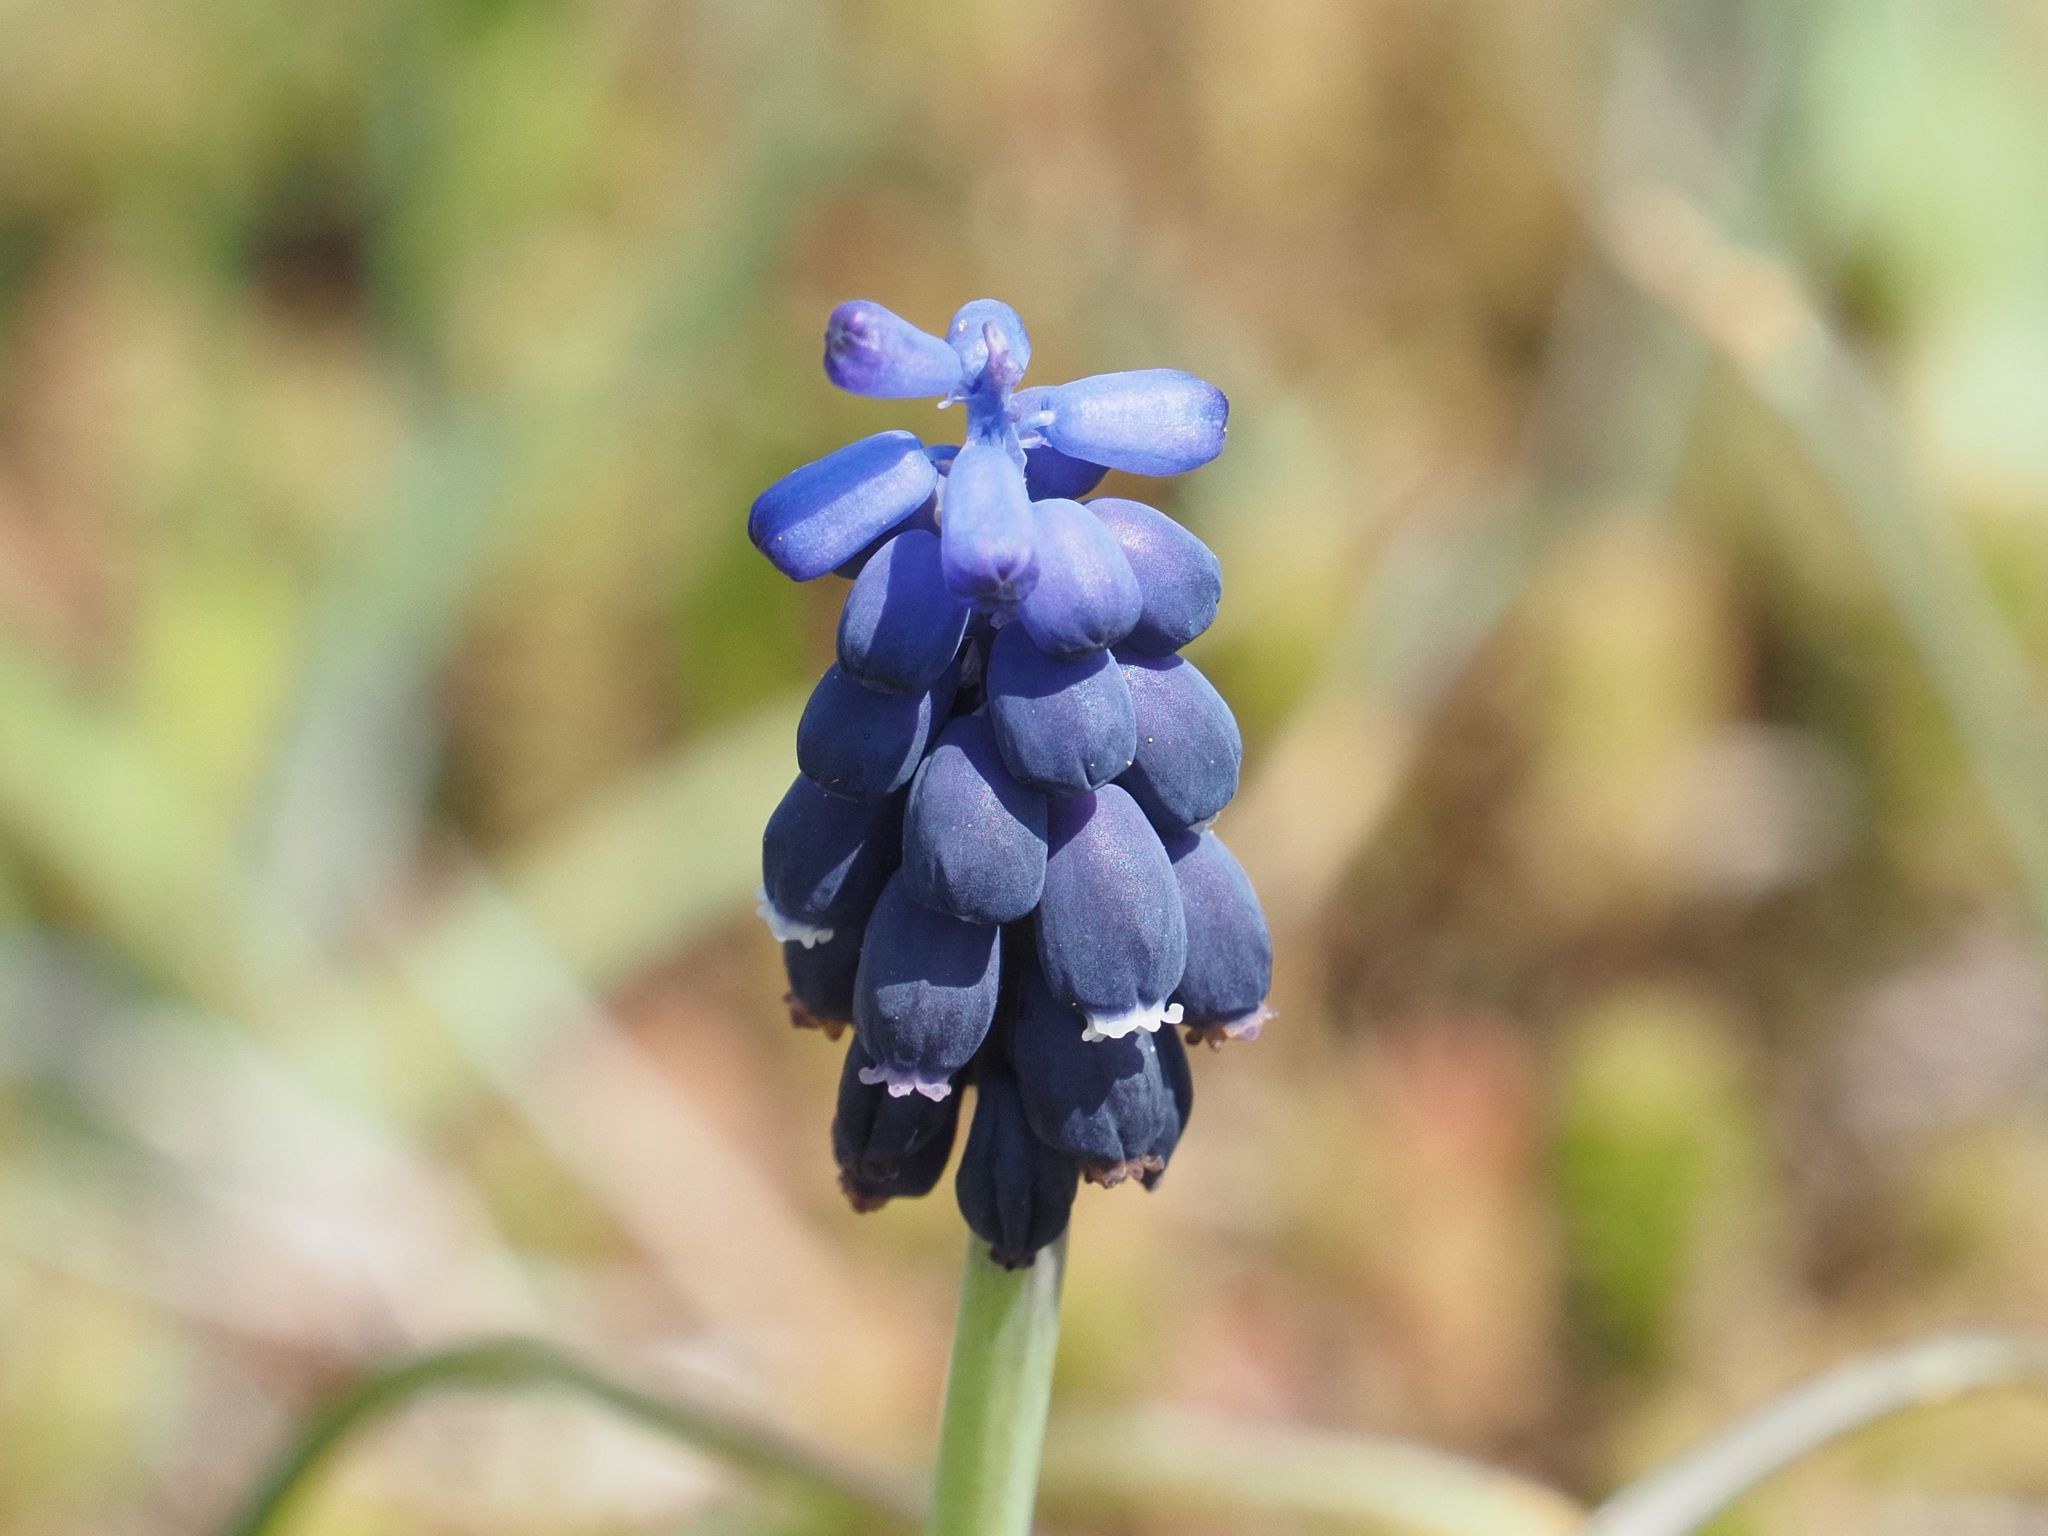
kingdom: Plantae
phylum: Tracheophyta
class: Liliopsida
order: Asparagales
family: Asparagaceae
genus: Muscari
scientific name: Muscari neglectum
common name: Grape-hyacinth
